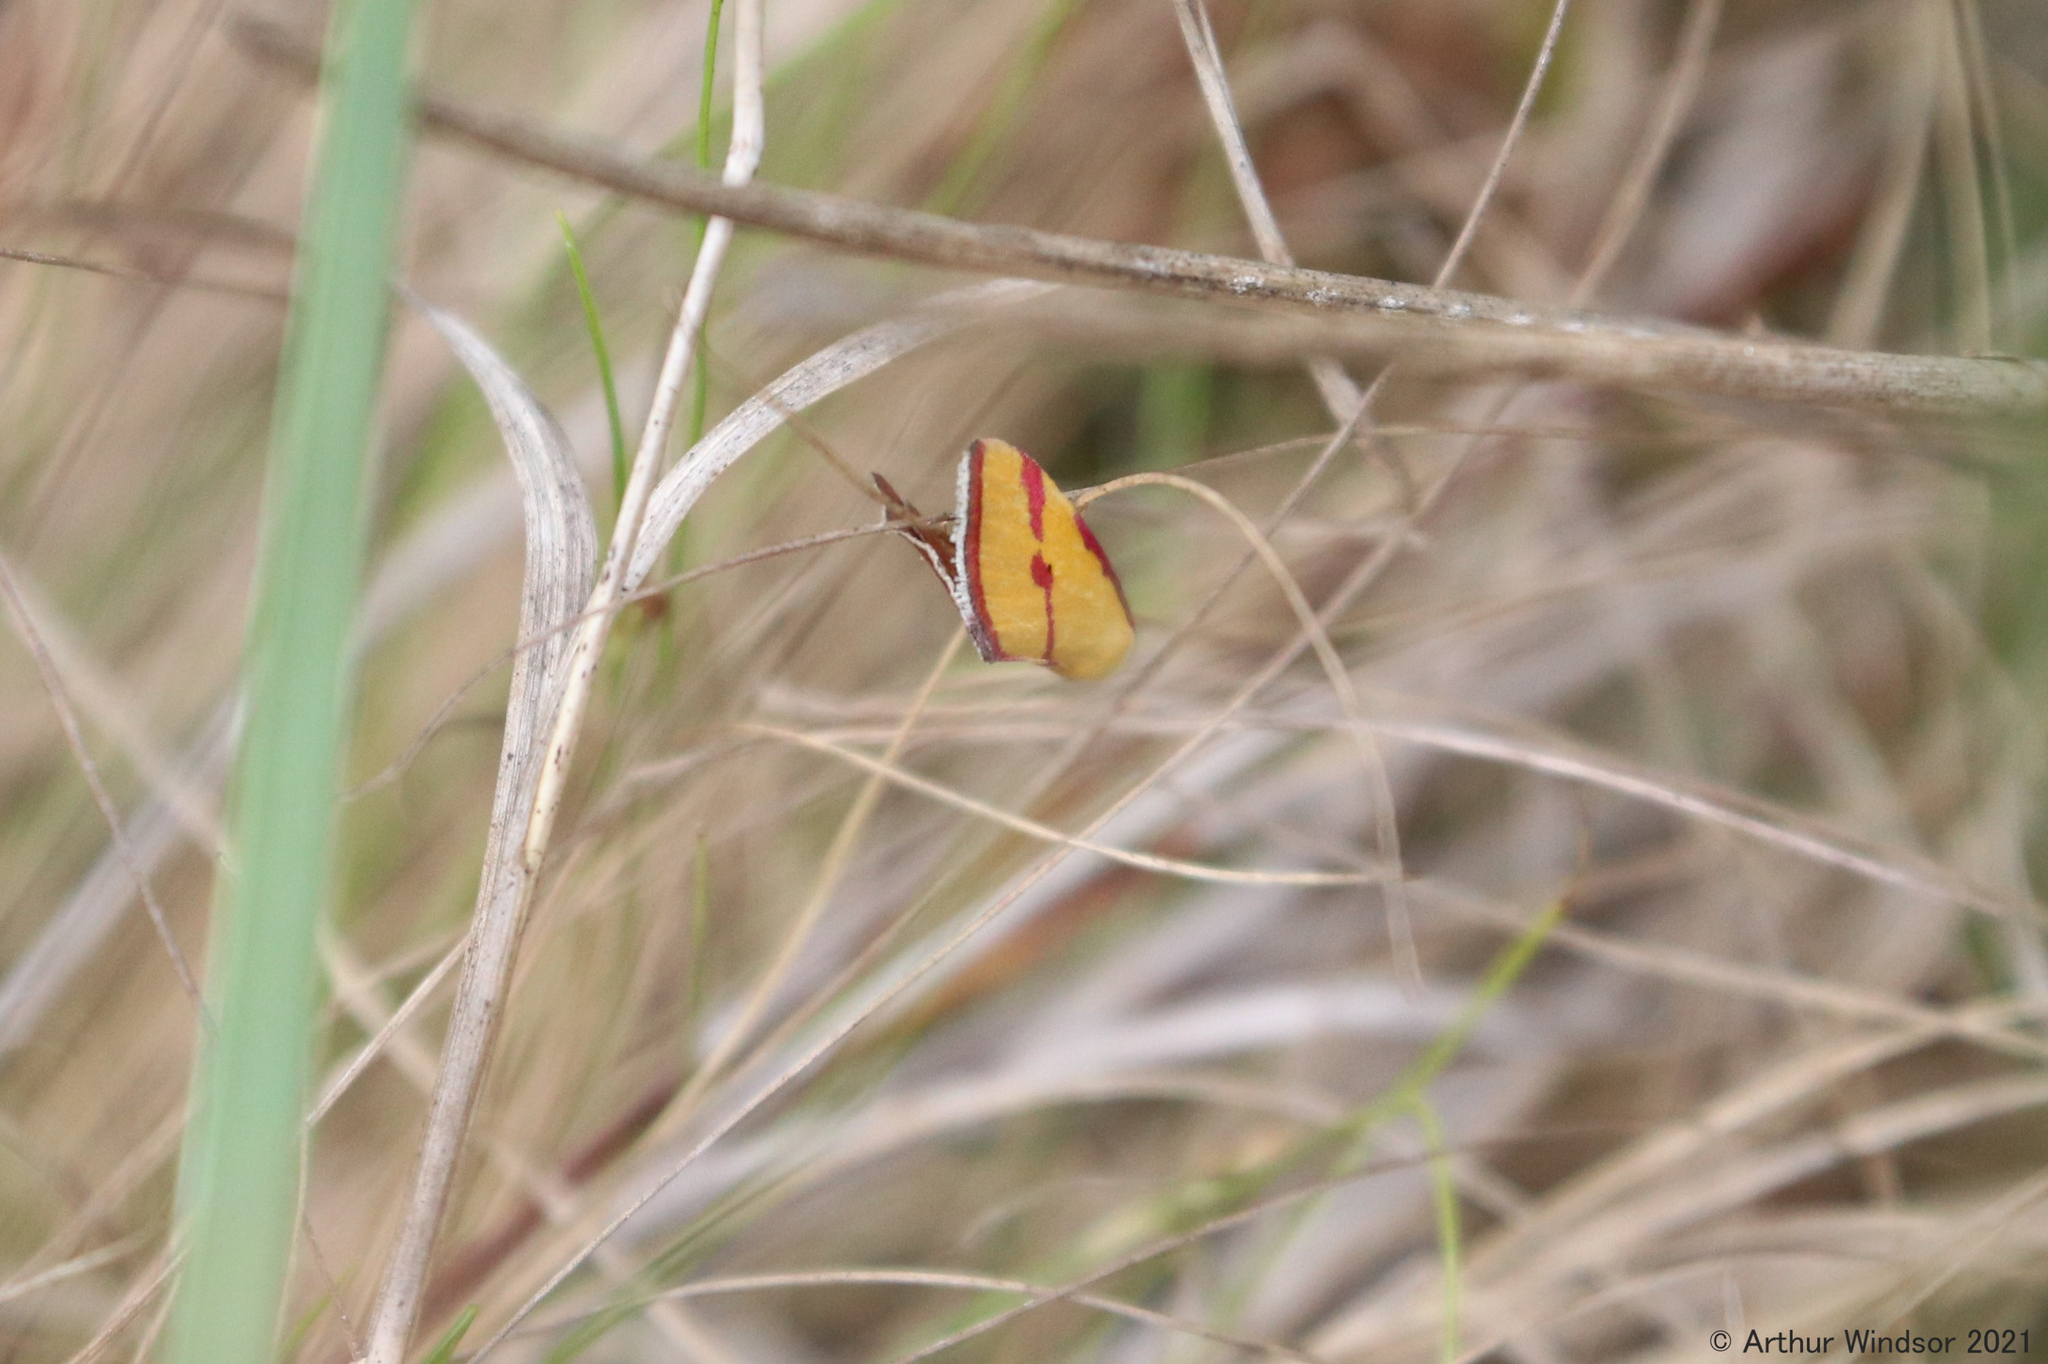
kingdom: Animalia
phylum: Arthropoda
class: Insecta
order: Lepidoptera
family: Erebidae
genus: Phytometra
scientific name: Phytometra ernestinana
